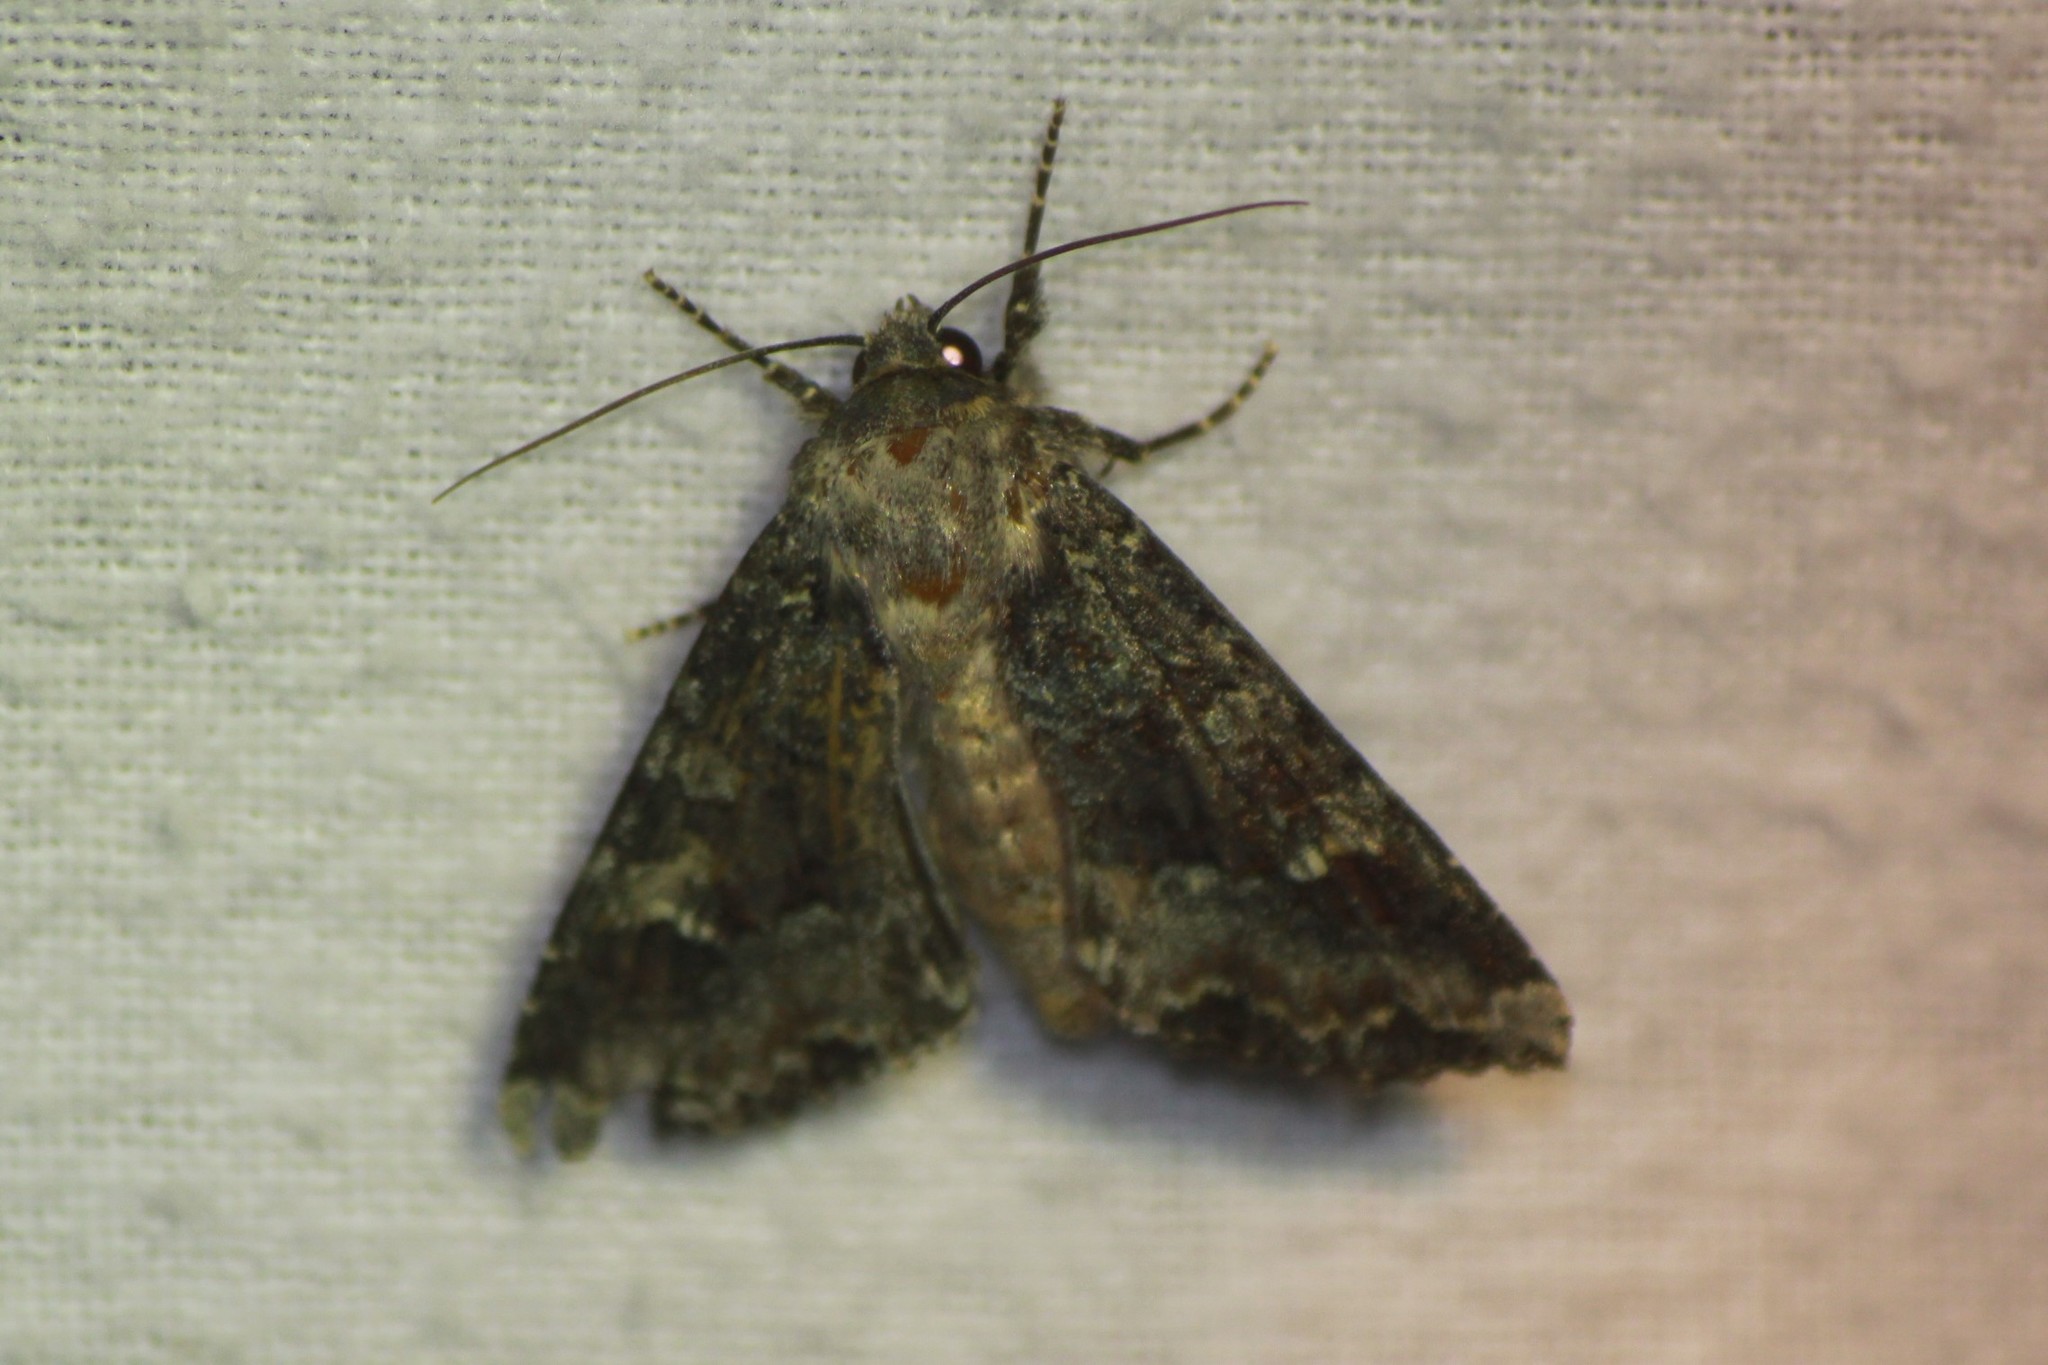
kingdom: Animalia
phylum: Arthropoda
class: Insecta
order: Lepidoptera
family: Noctuidae
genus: Apamea
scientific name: Apamea amputatrix
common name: Yellow-headed cutworm moth
